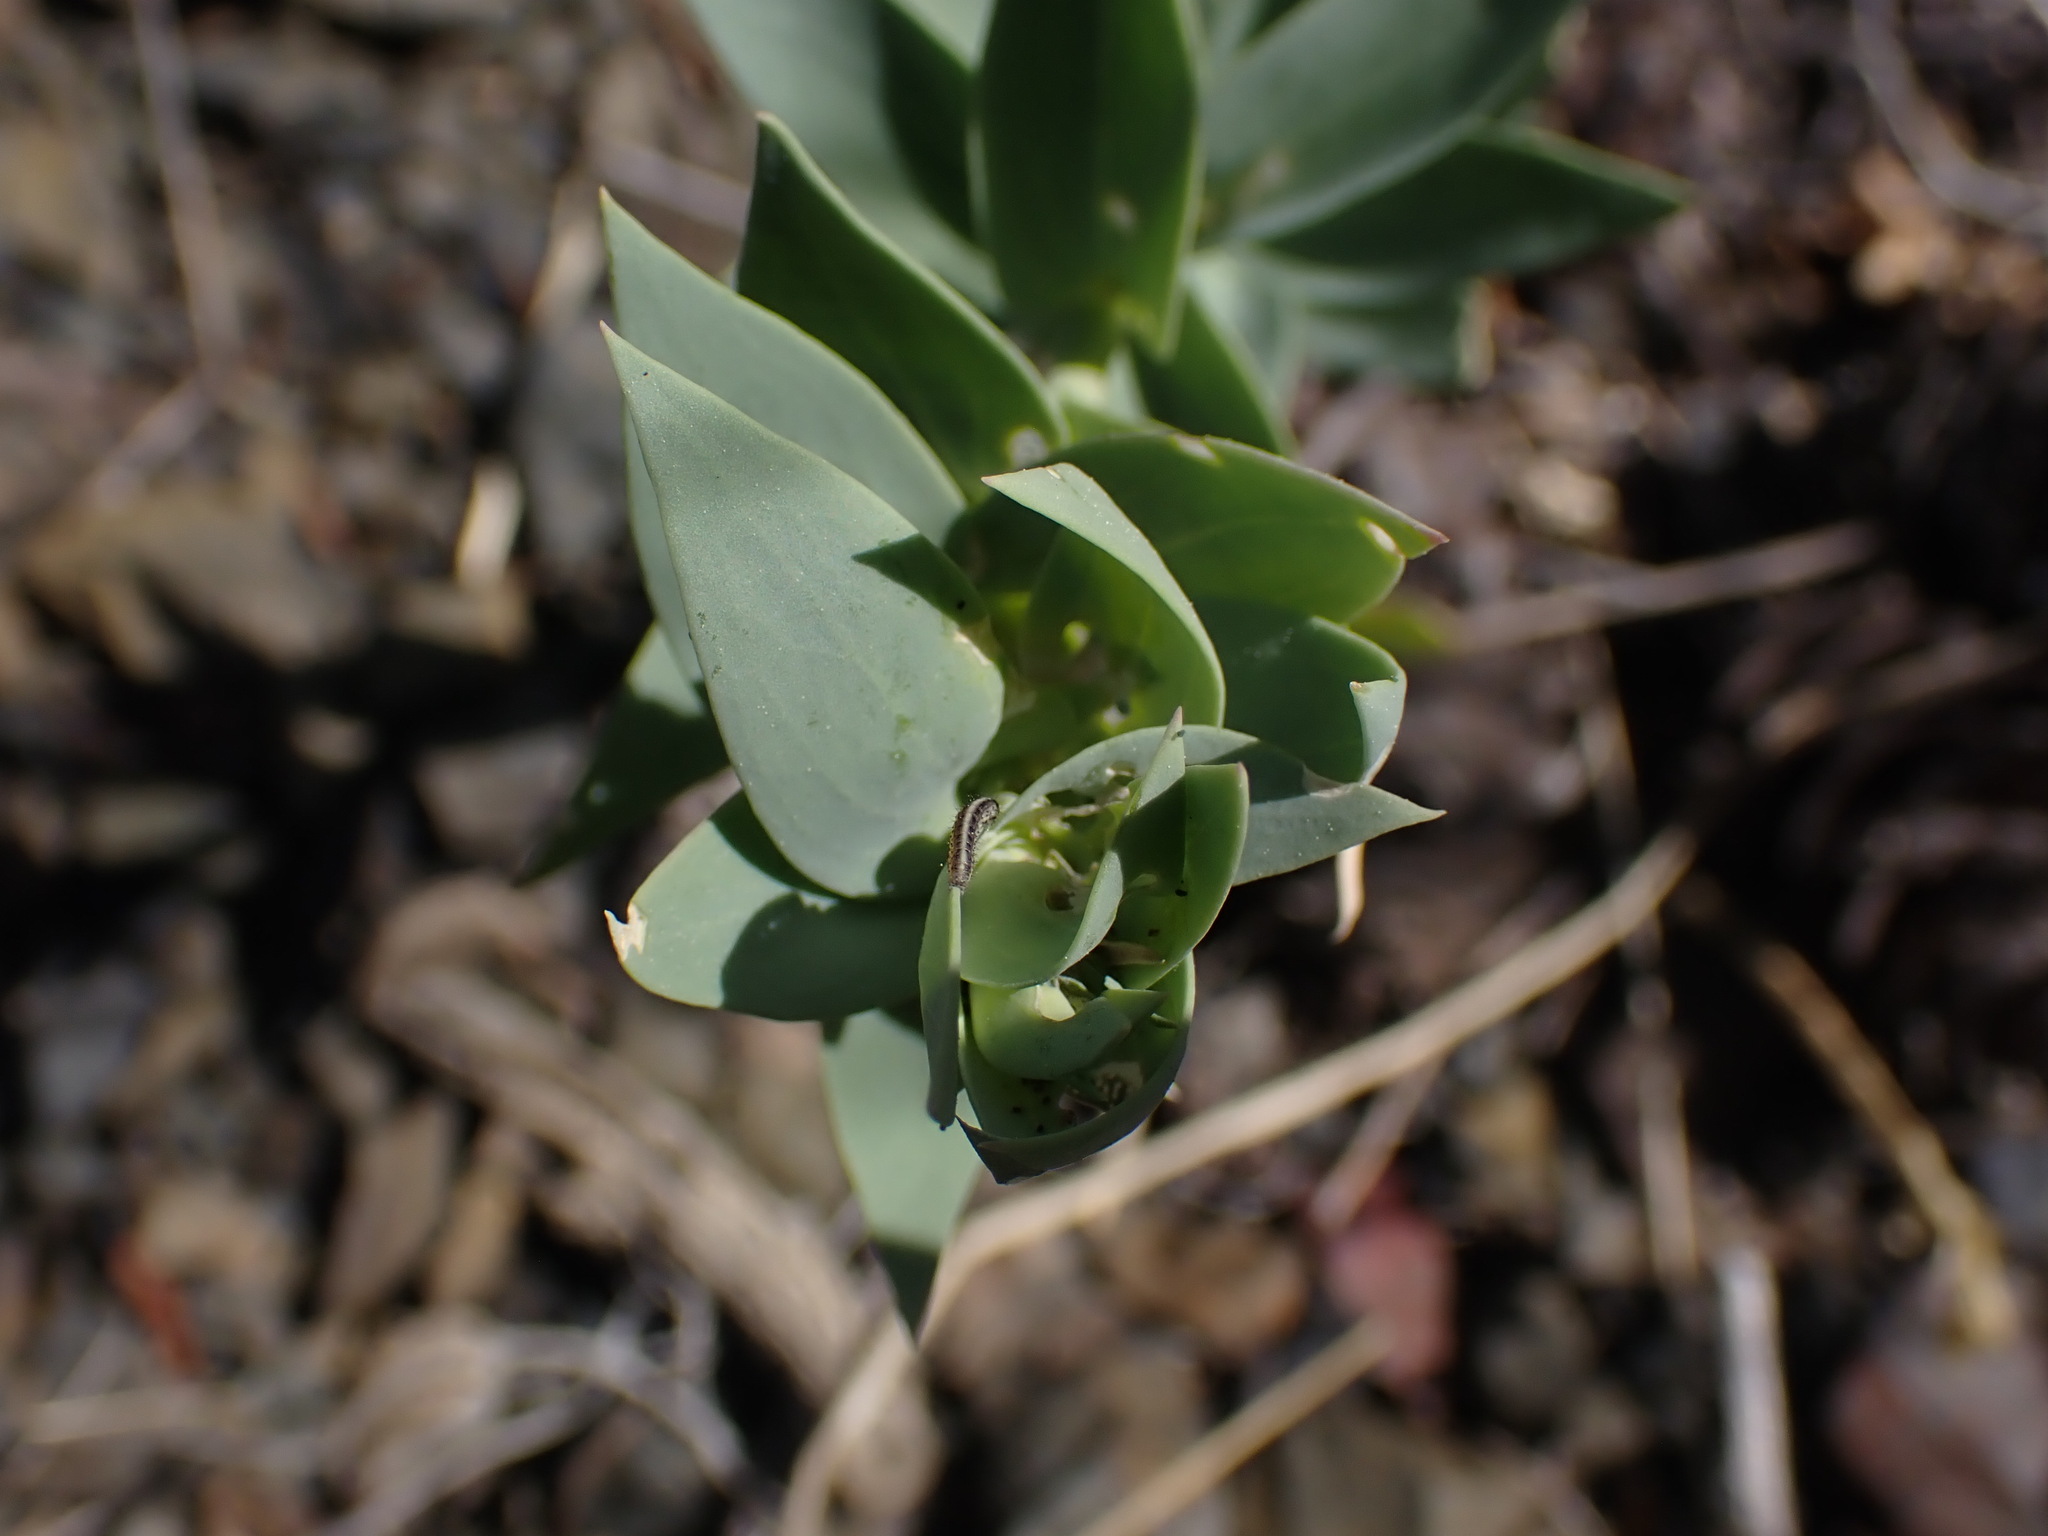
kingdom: Plantae
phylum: Tracheophyta
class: Magnoliopsida
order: Lamiales
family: Plantaginaceae
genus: Linaria
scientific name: Linaria dalmatica
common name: Dalmatian toadflax
